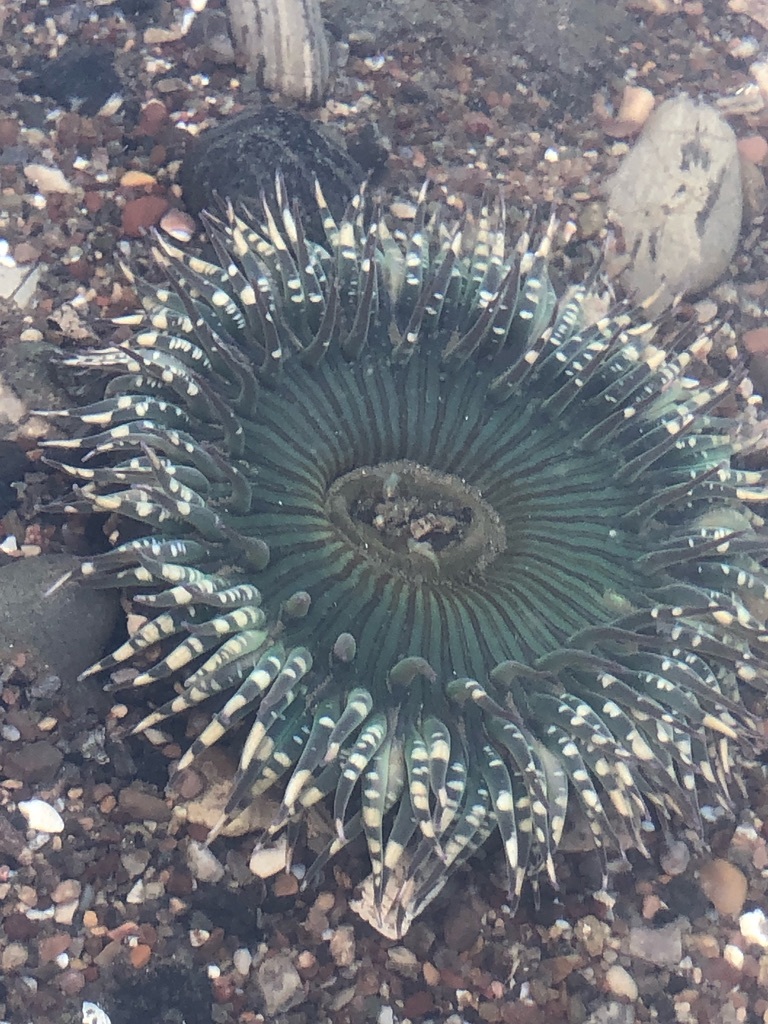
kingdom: Animalia
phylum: Cnidaria
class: Anthozoa
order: Actiniaria
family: Actiniidae
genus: Anthopleura
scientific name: Anthopleura sola
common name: Sun anemone
